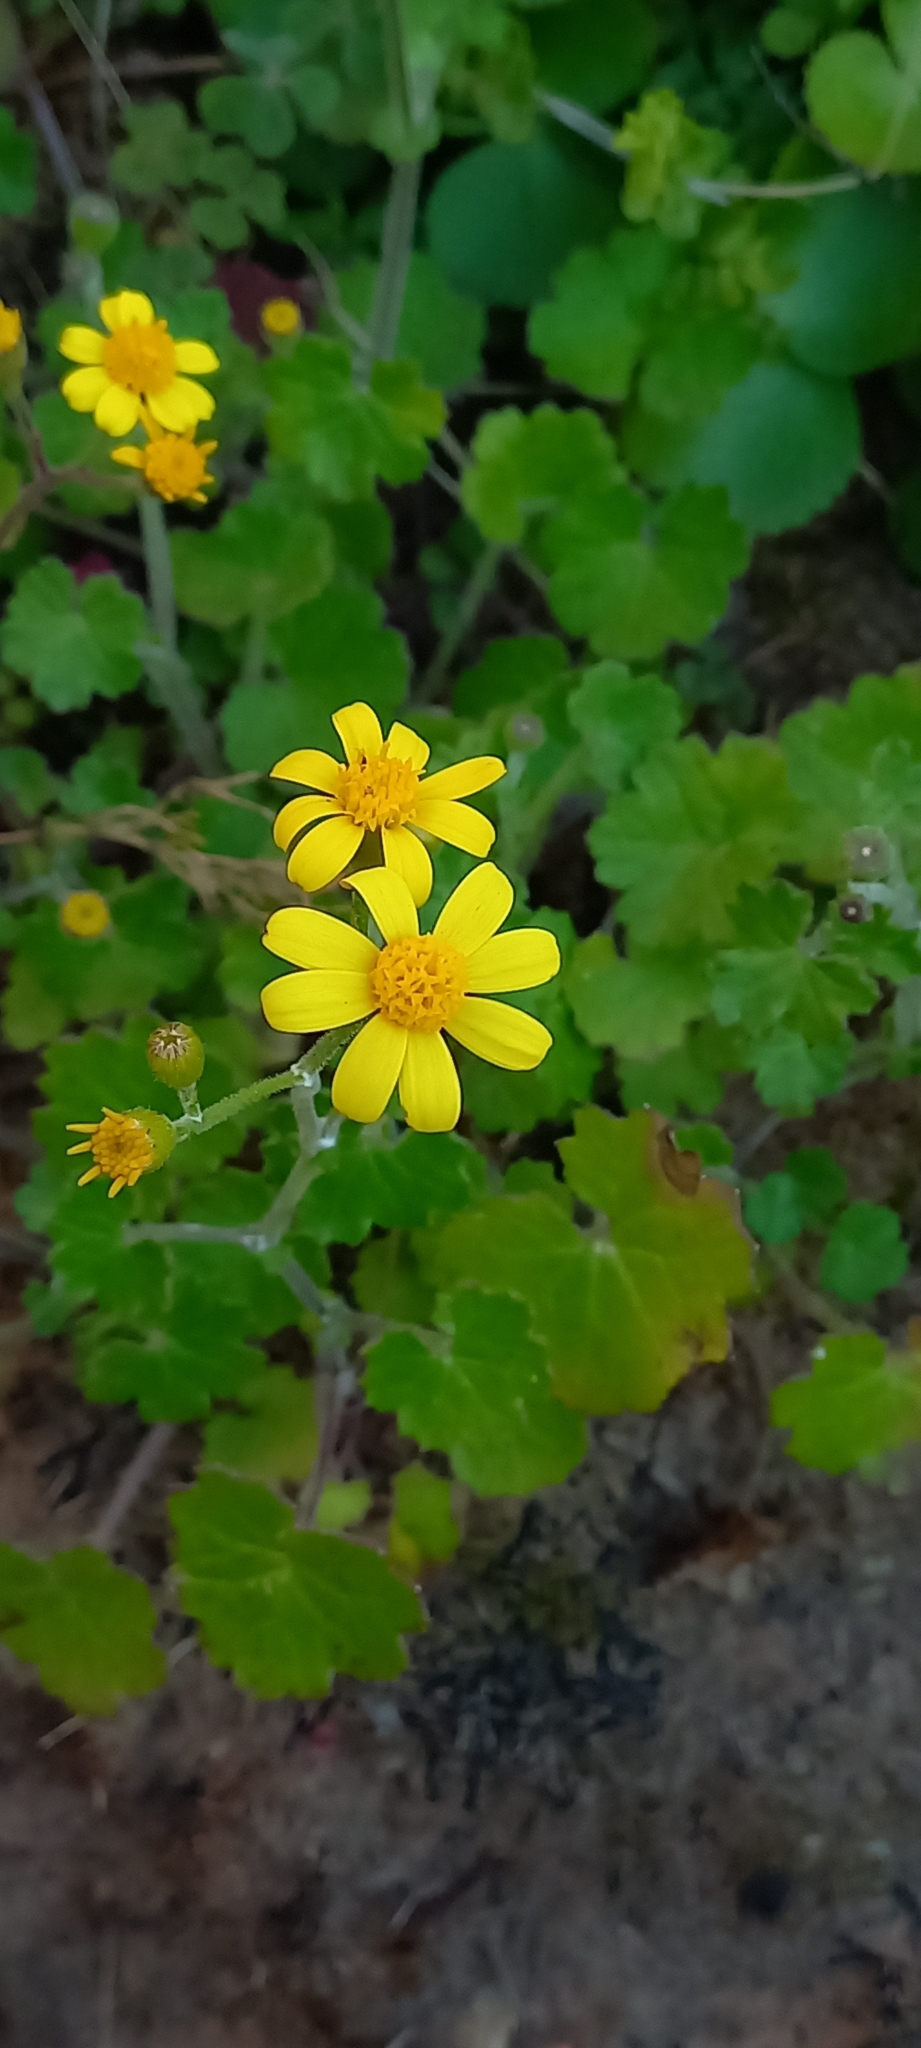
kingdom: Plantae
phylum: Tracheophyta
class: Magnoliopsida
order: Asterales
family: Asteraceae
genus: Cineraria
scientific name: Cineraria geifolia
